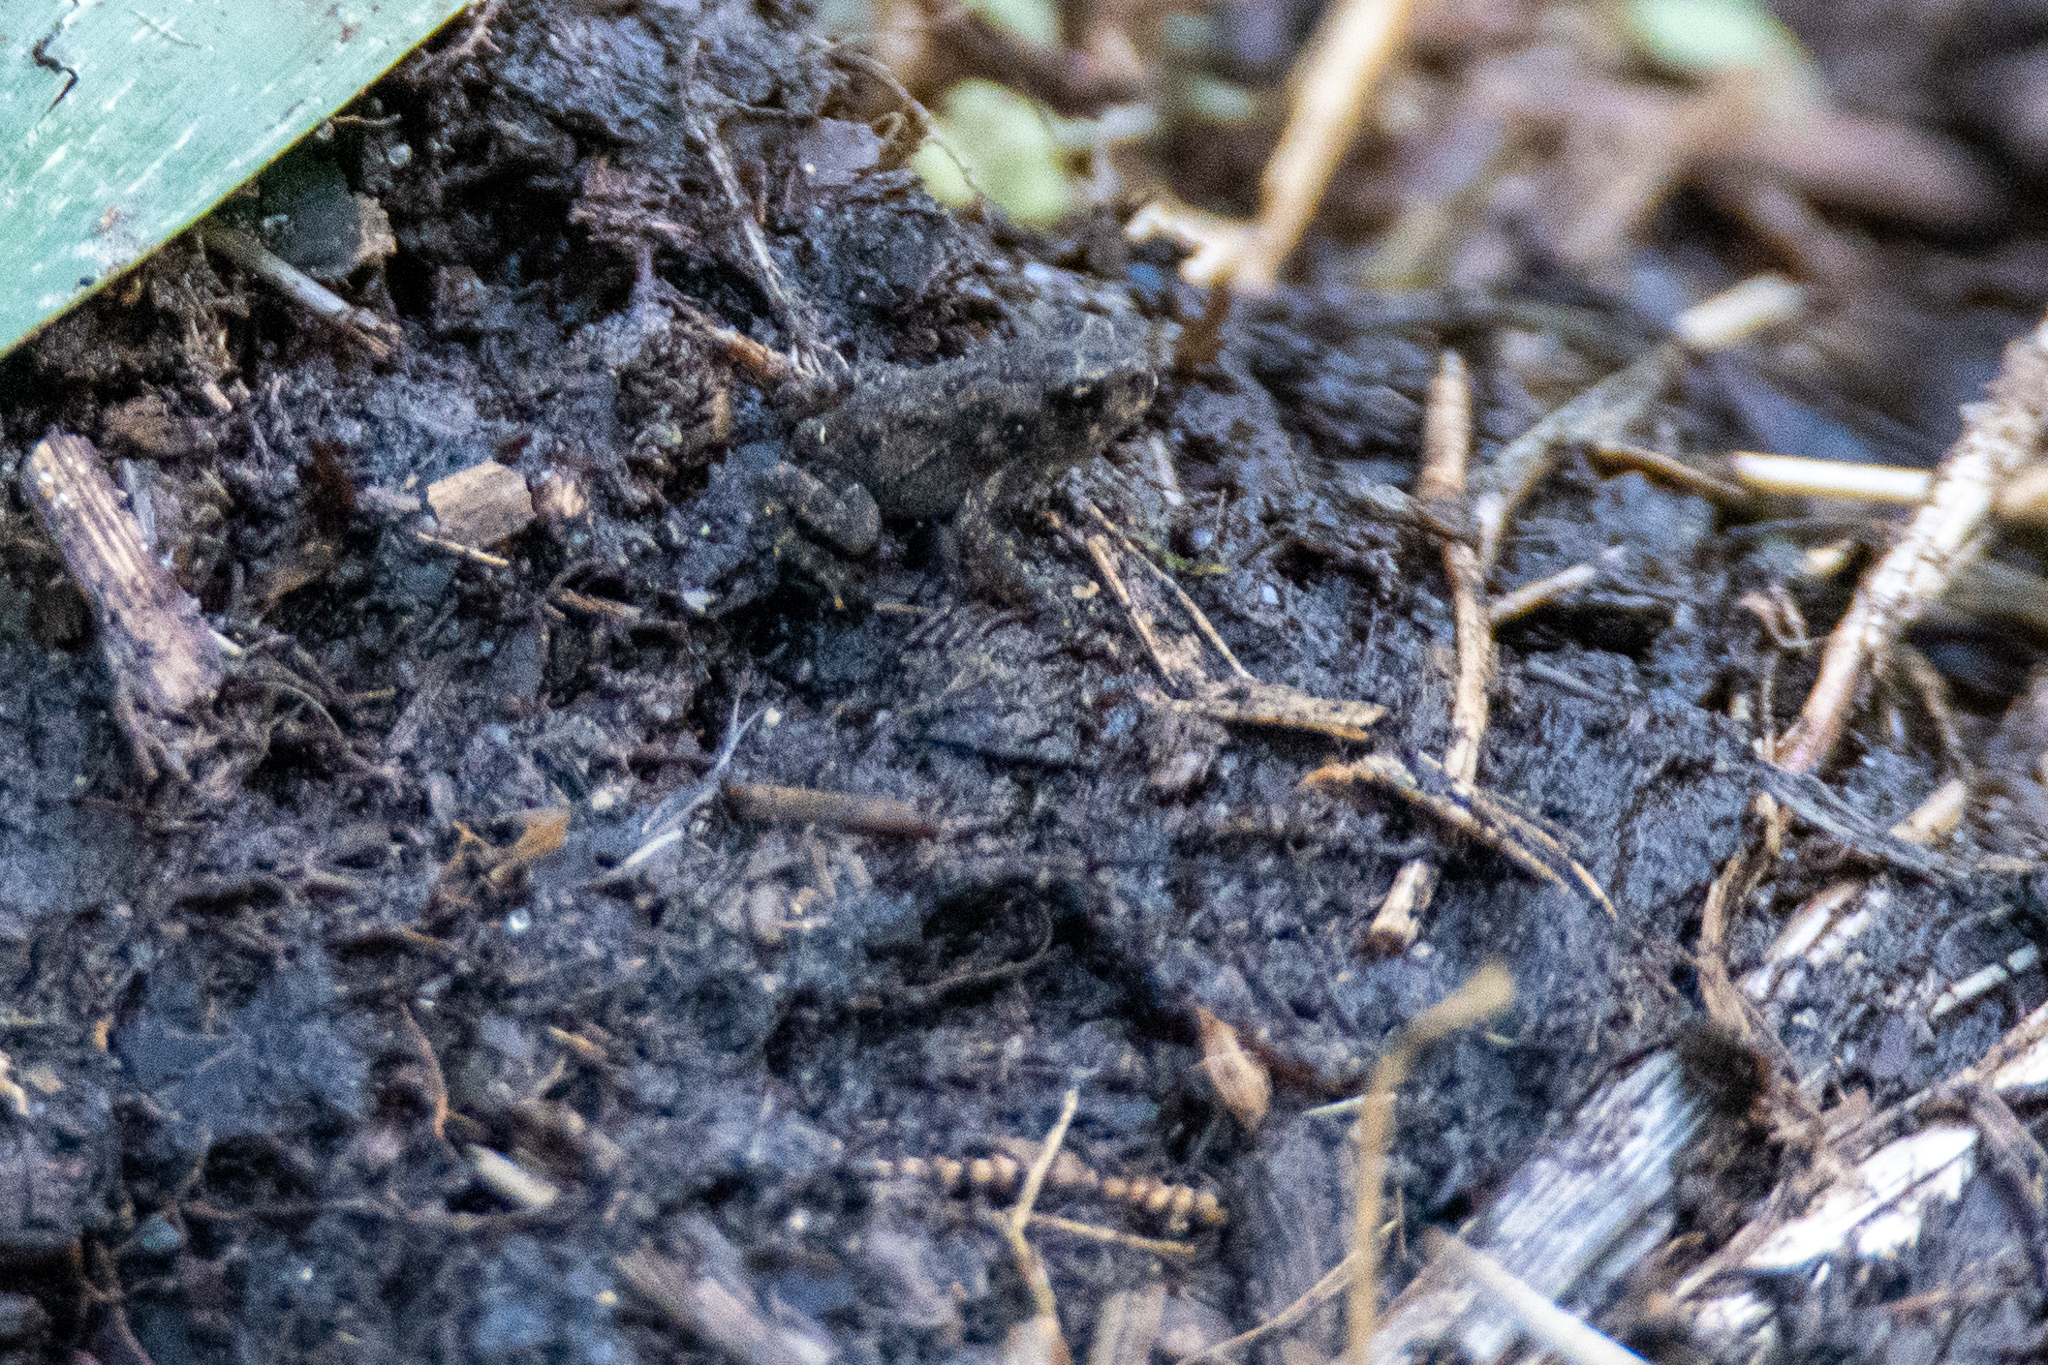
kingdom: Animalia
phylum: Chordata
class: Amphibia
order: Anura
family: Bufonidae
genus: Anaxyrus
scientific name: Anaxyrus americanus
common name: American toad
